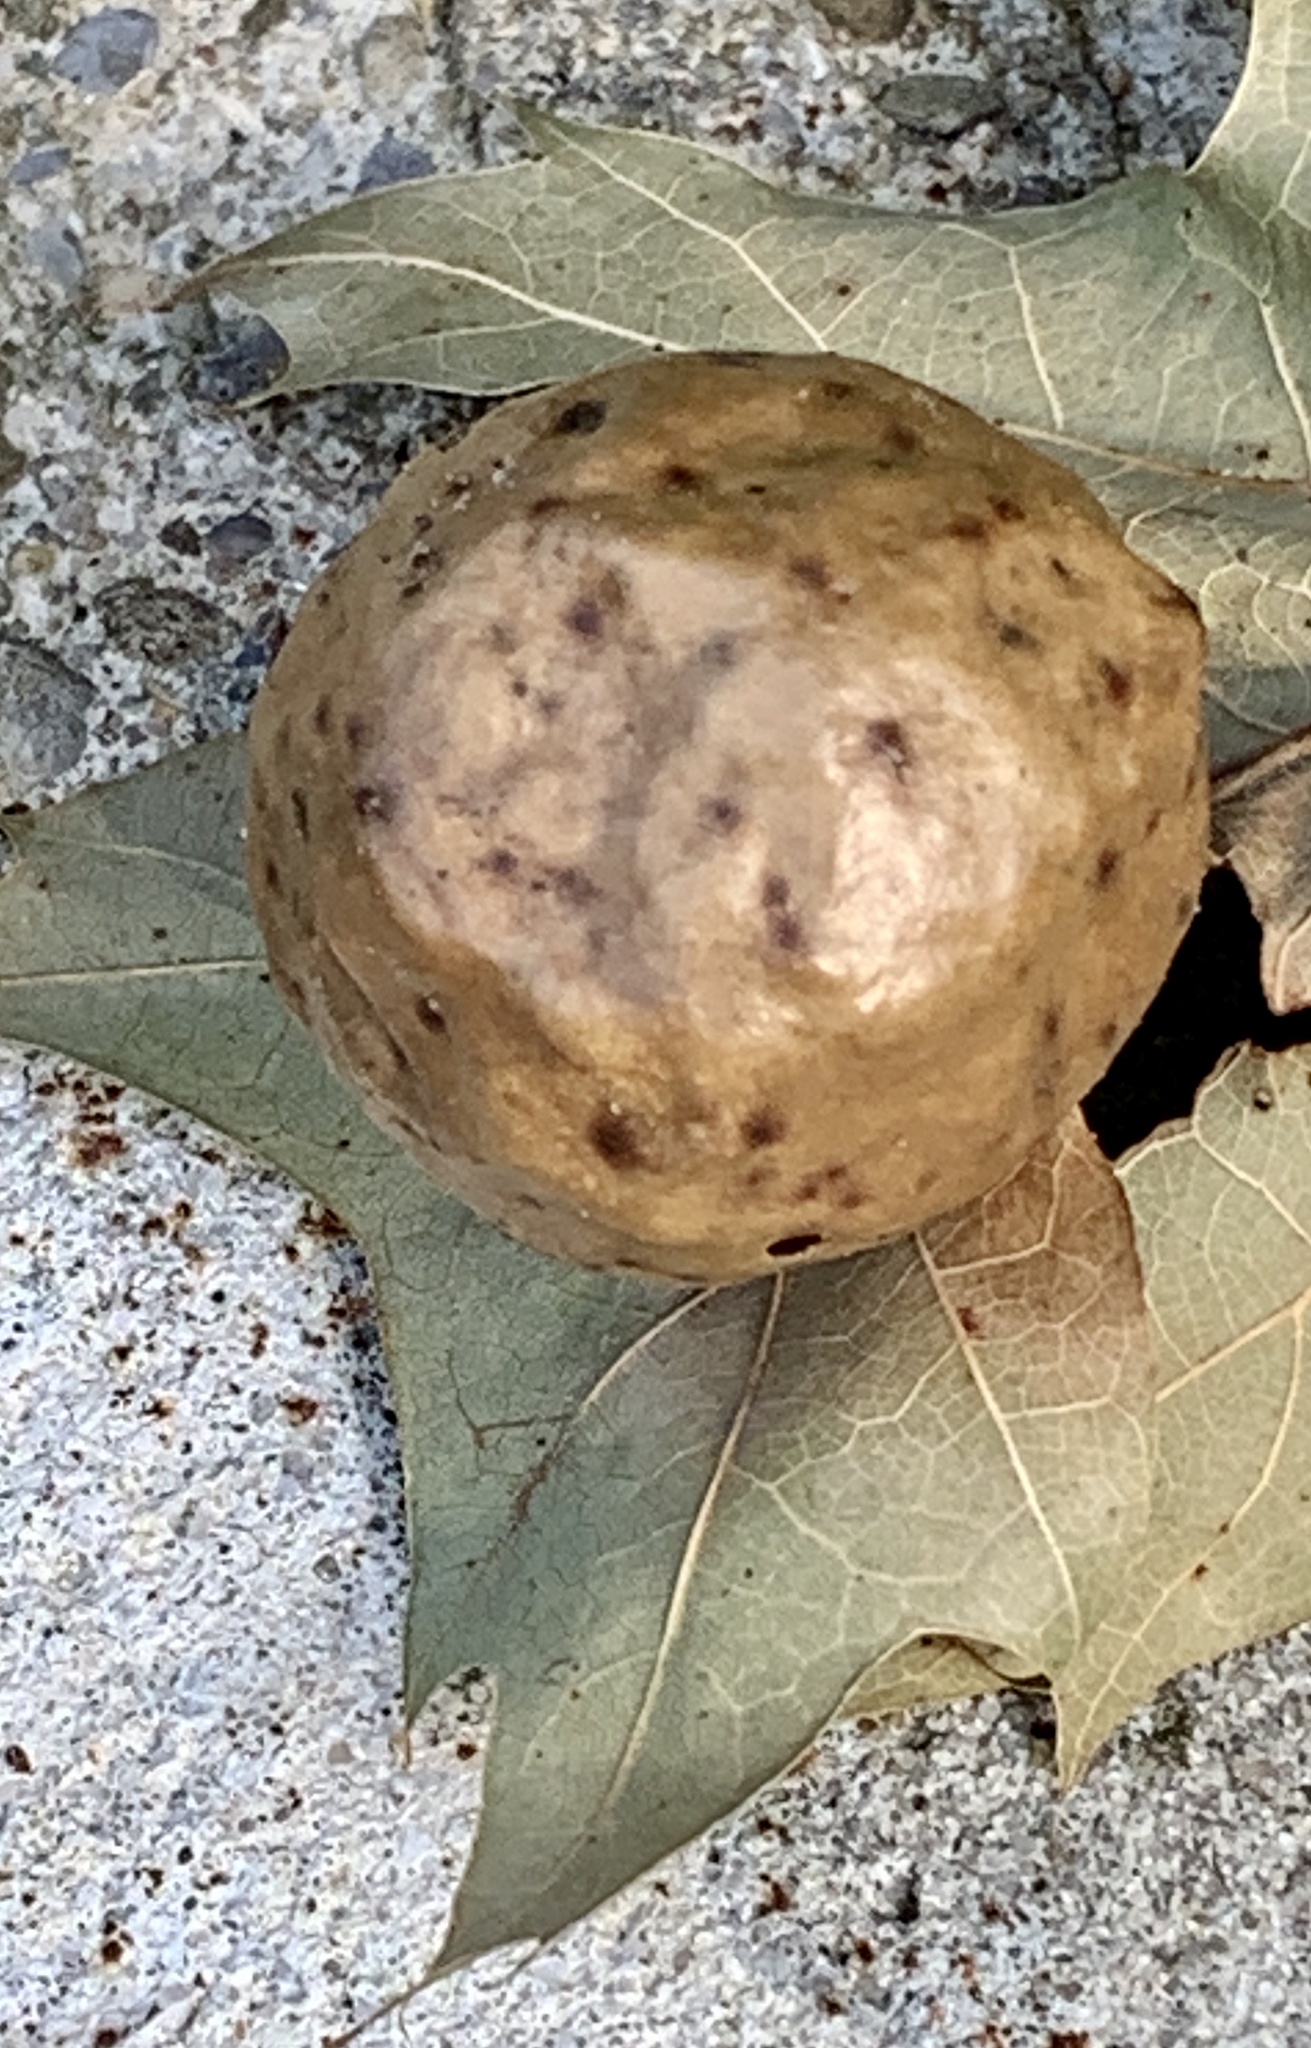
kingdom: Animalia
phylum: Arthropoda
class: Insecta
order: Hymenoptera
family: Cynipidae
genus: Amphibolips
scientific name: Amphibolips
